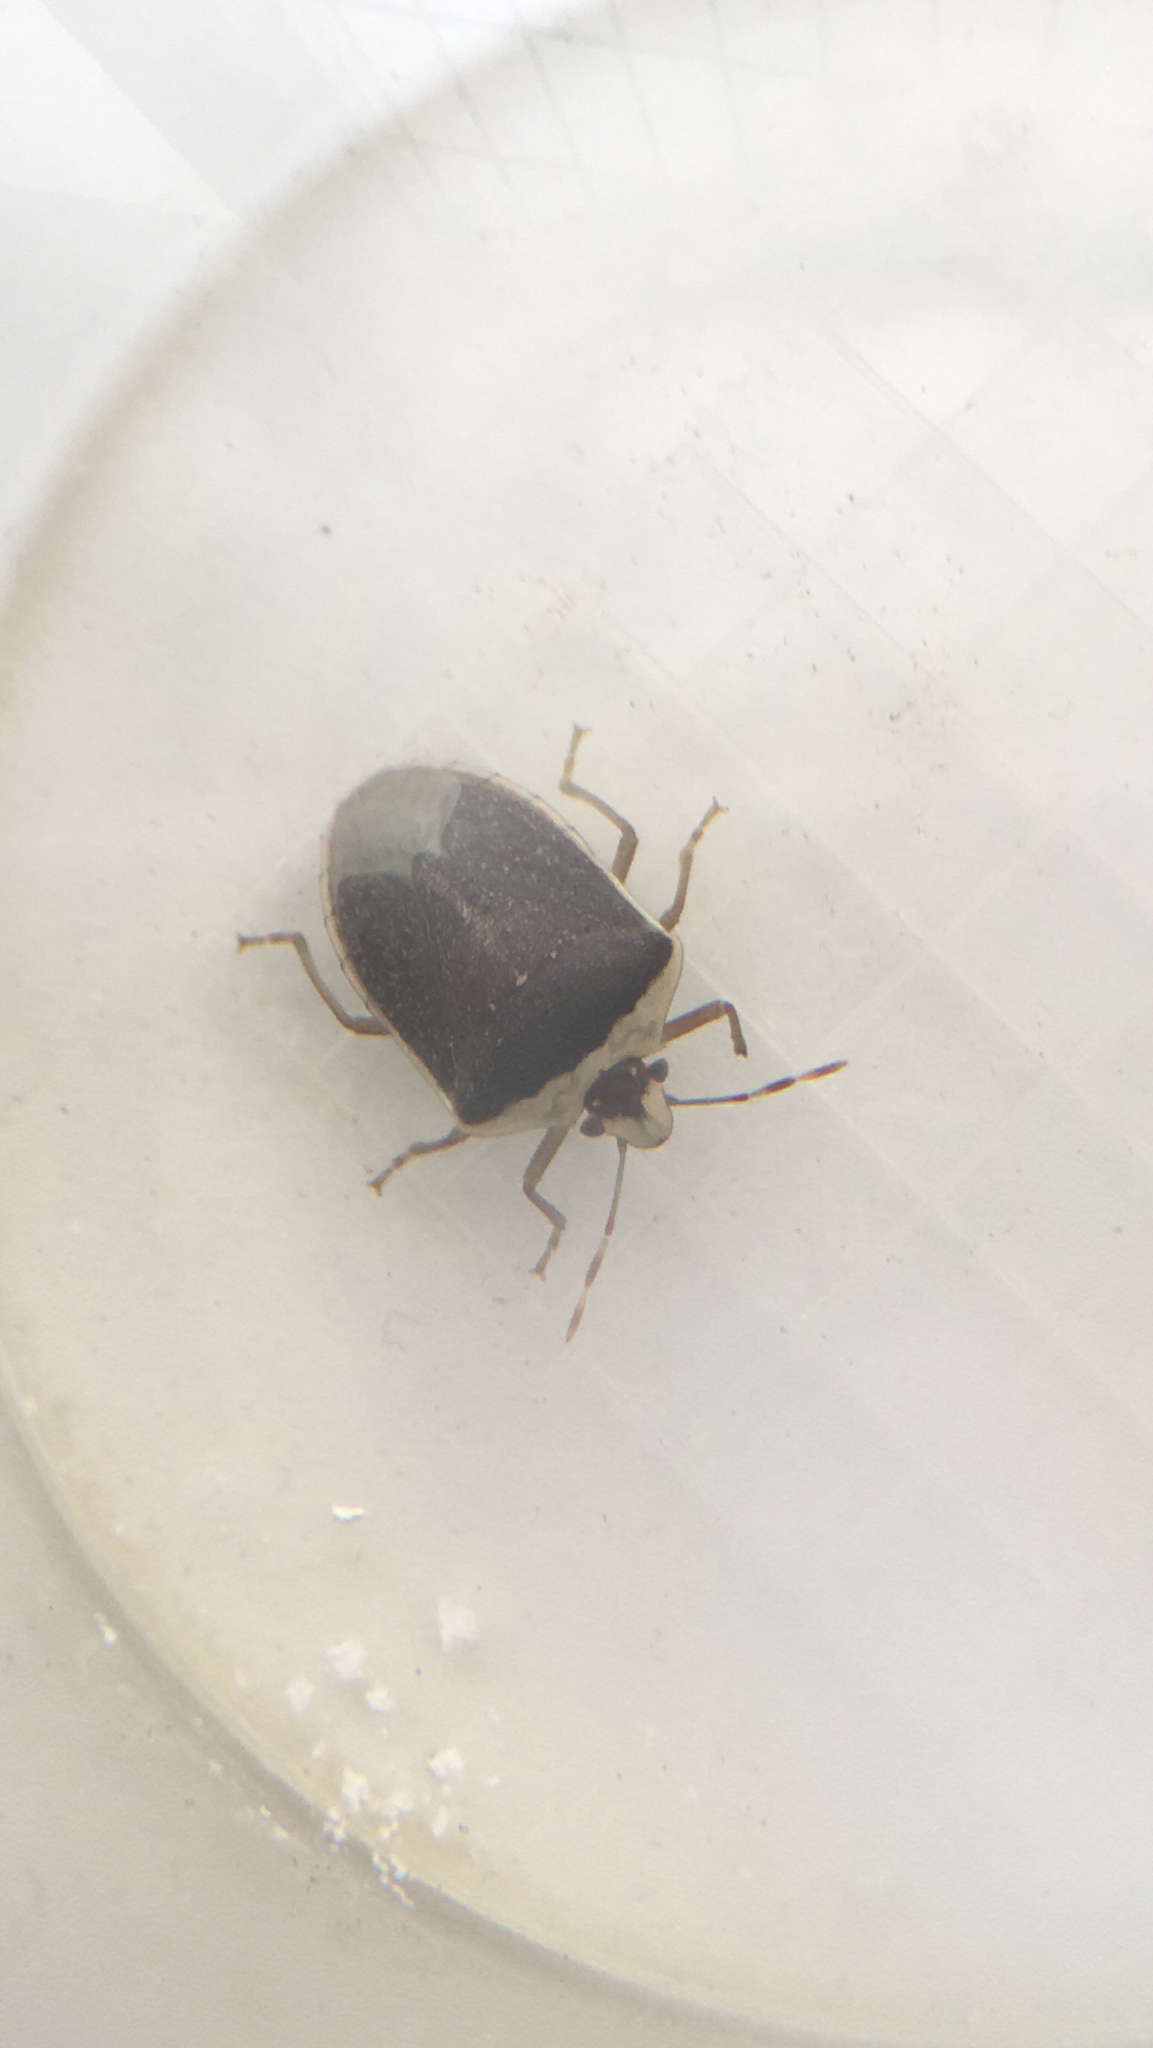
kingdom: Animalia
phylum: Arthropoda
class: Insecta
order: Hemiptera
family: Pentatomidae
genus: Nezara
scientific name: Nezara viridula
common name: Southern green stink bug
